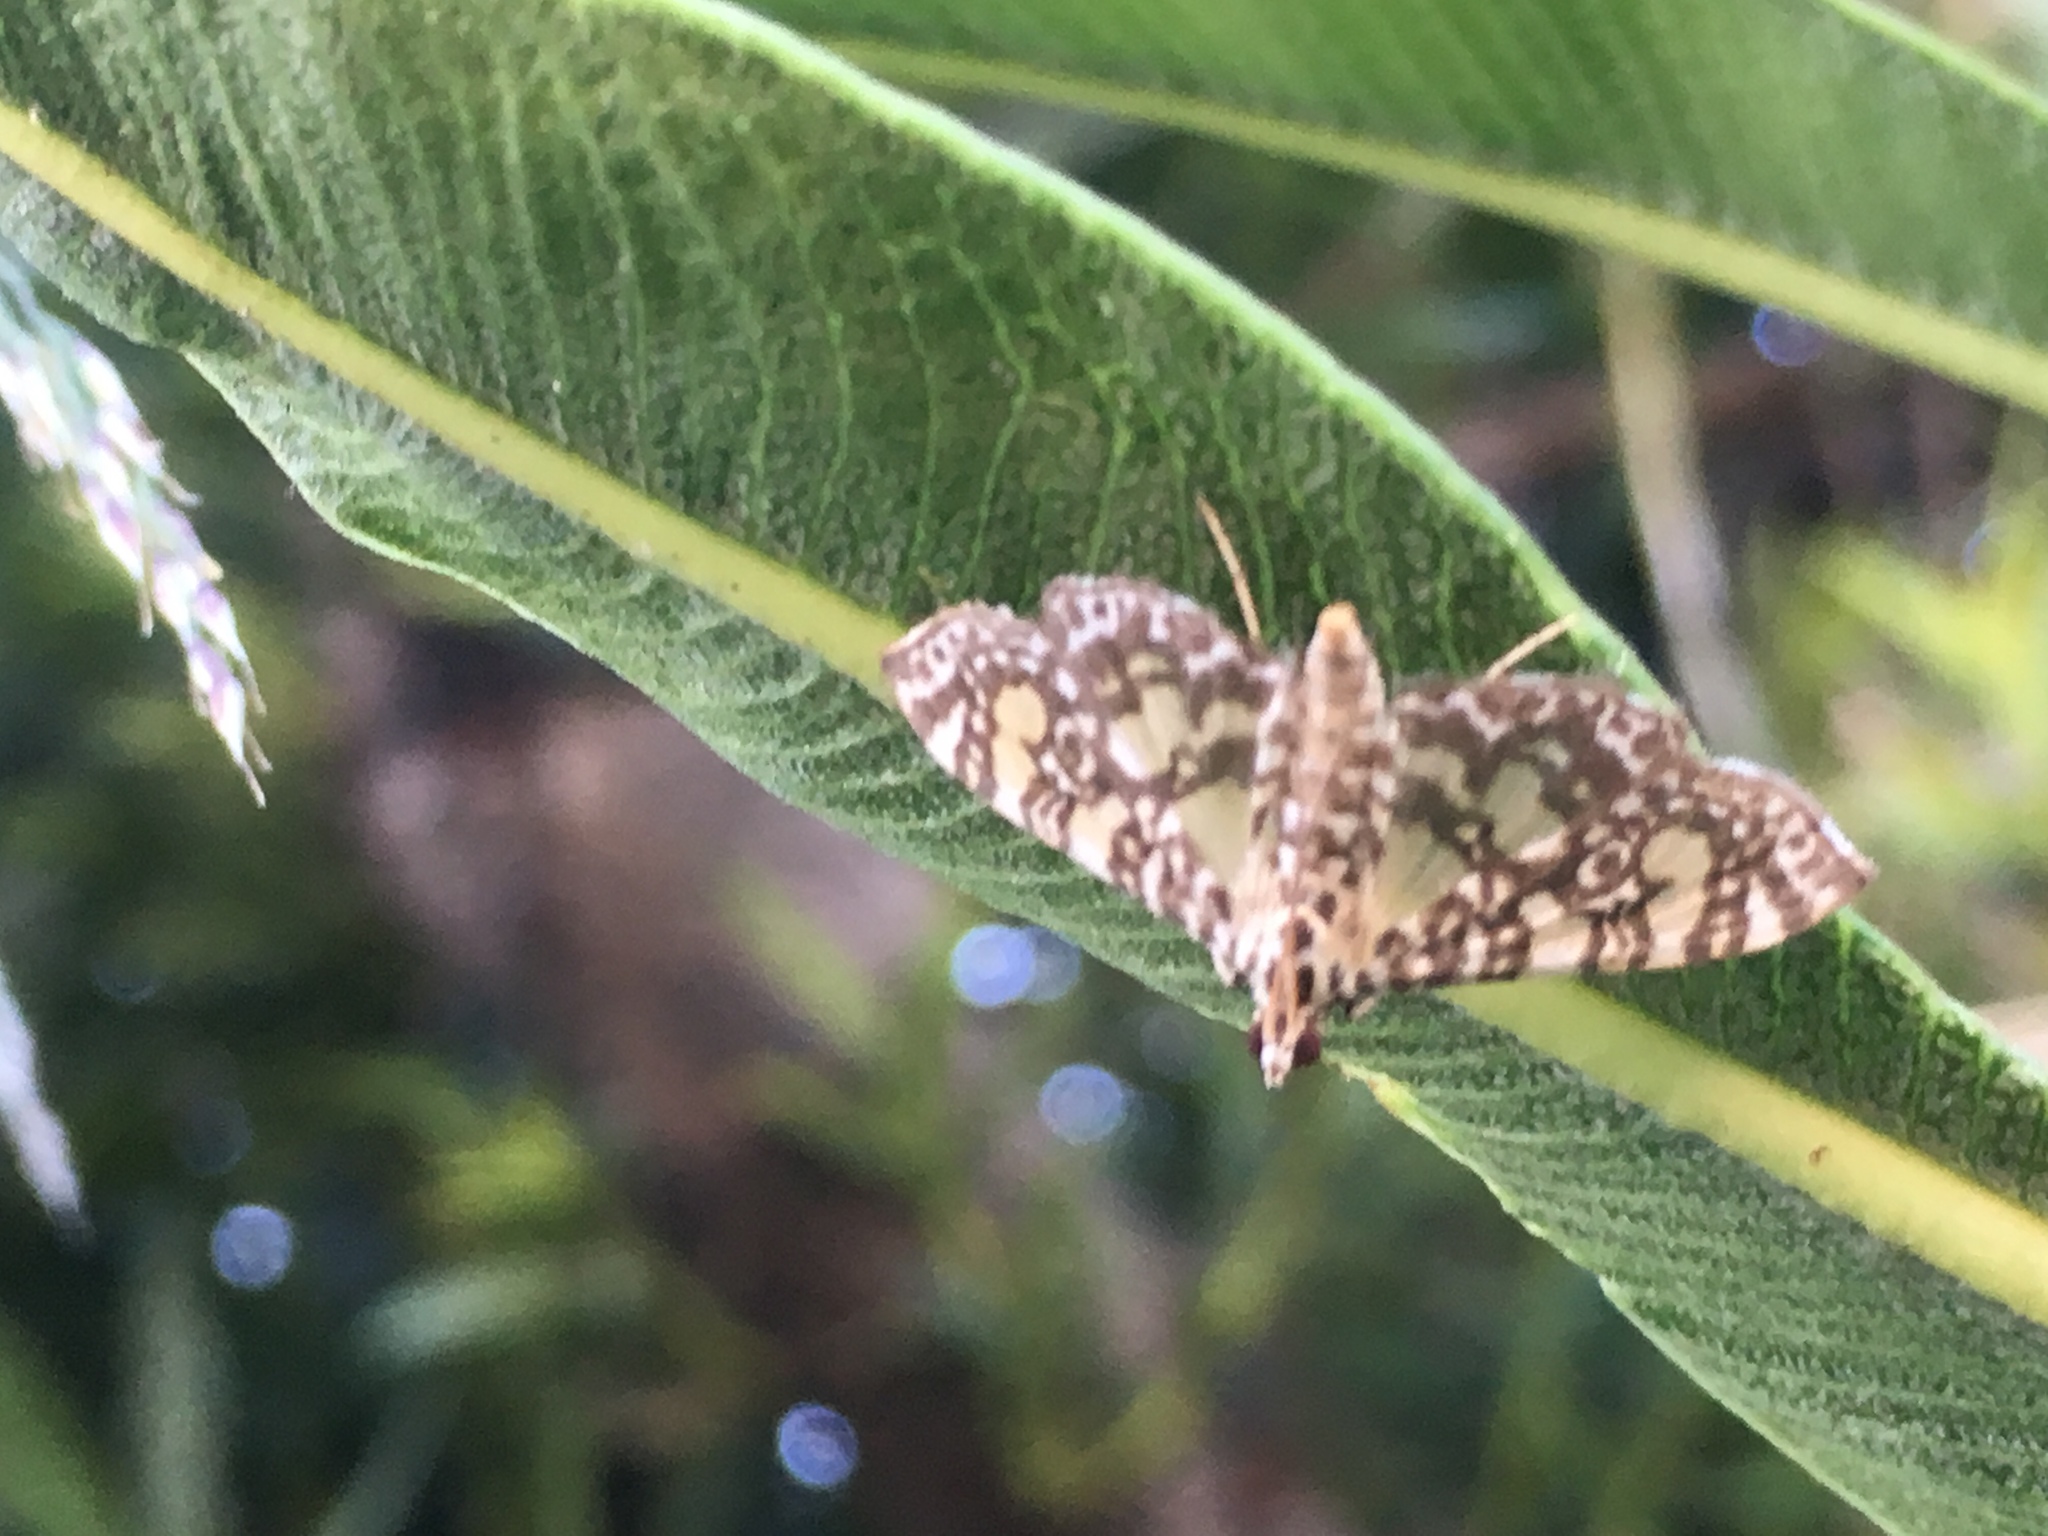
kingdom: Animalia
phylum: Arthropoda
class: Insecta
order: Lepidoptera
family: Crambidae
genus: Glyphodes
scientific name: Glyphodes onychinalis
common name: Swan plant moth
